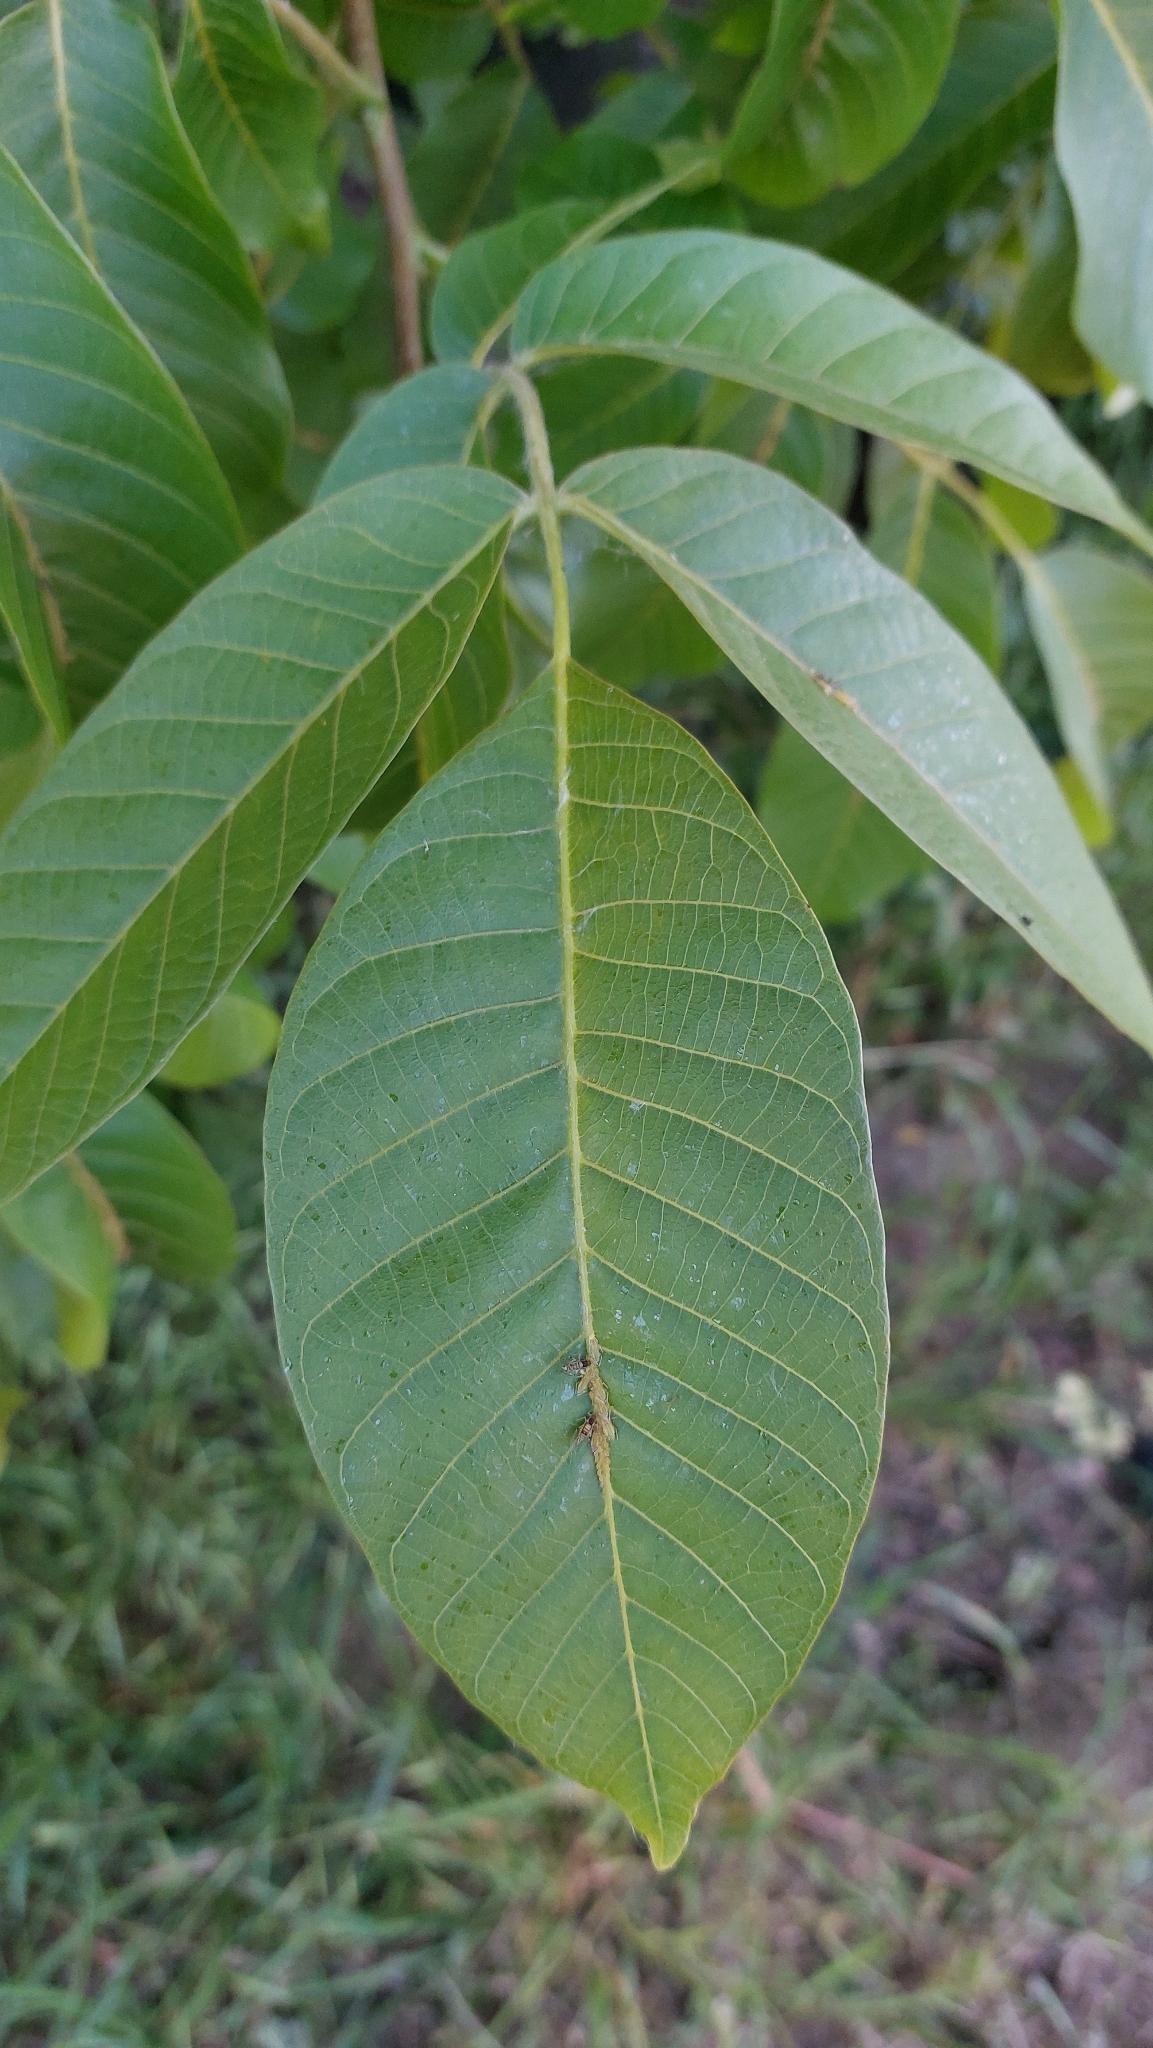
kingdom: Plantae
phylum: Tracheophyta
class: Magnoliopsida
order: Fagales
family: Juglandaceae
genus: Juglans
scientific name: Juglans regia
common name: Walnut
